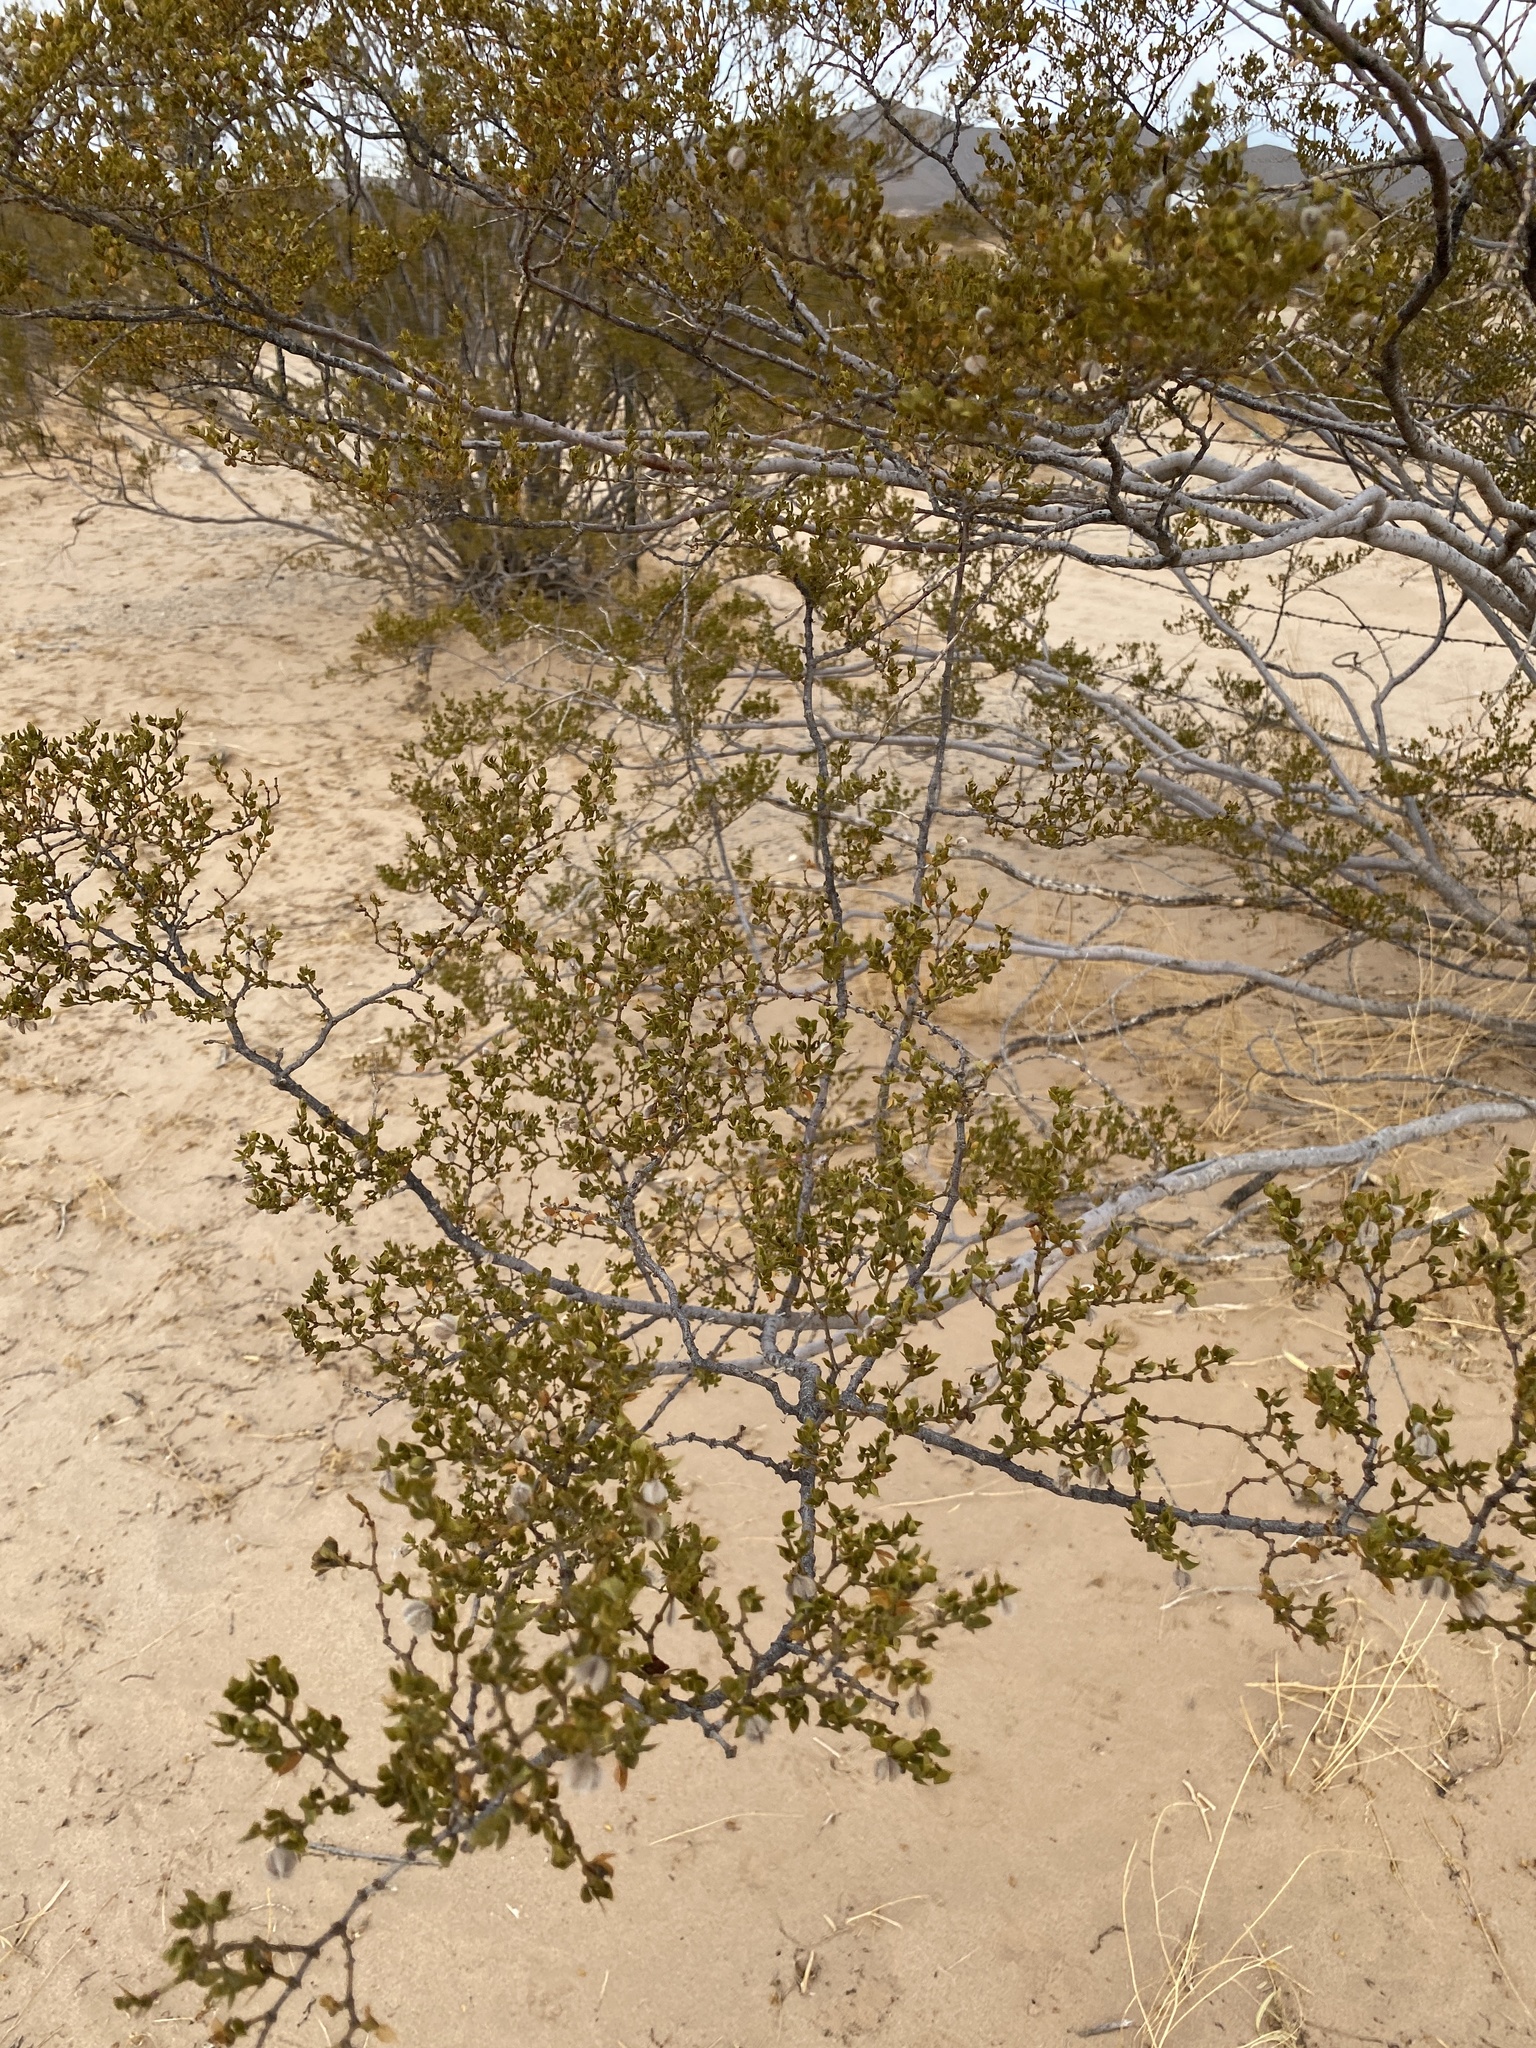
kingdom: Plantae
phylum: Tracheophyta
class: Magnoliopsida
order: Zygophyllales
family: Zygophyllaceae
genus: Larrea
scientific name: Larrea tridentata
